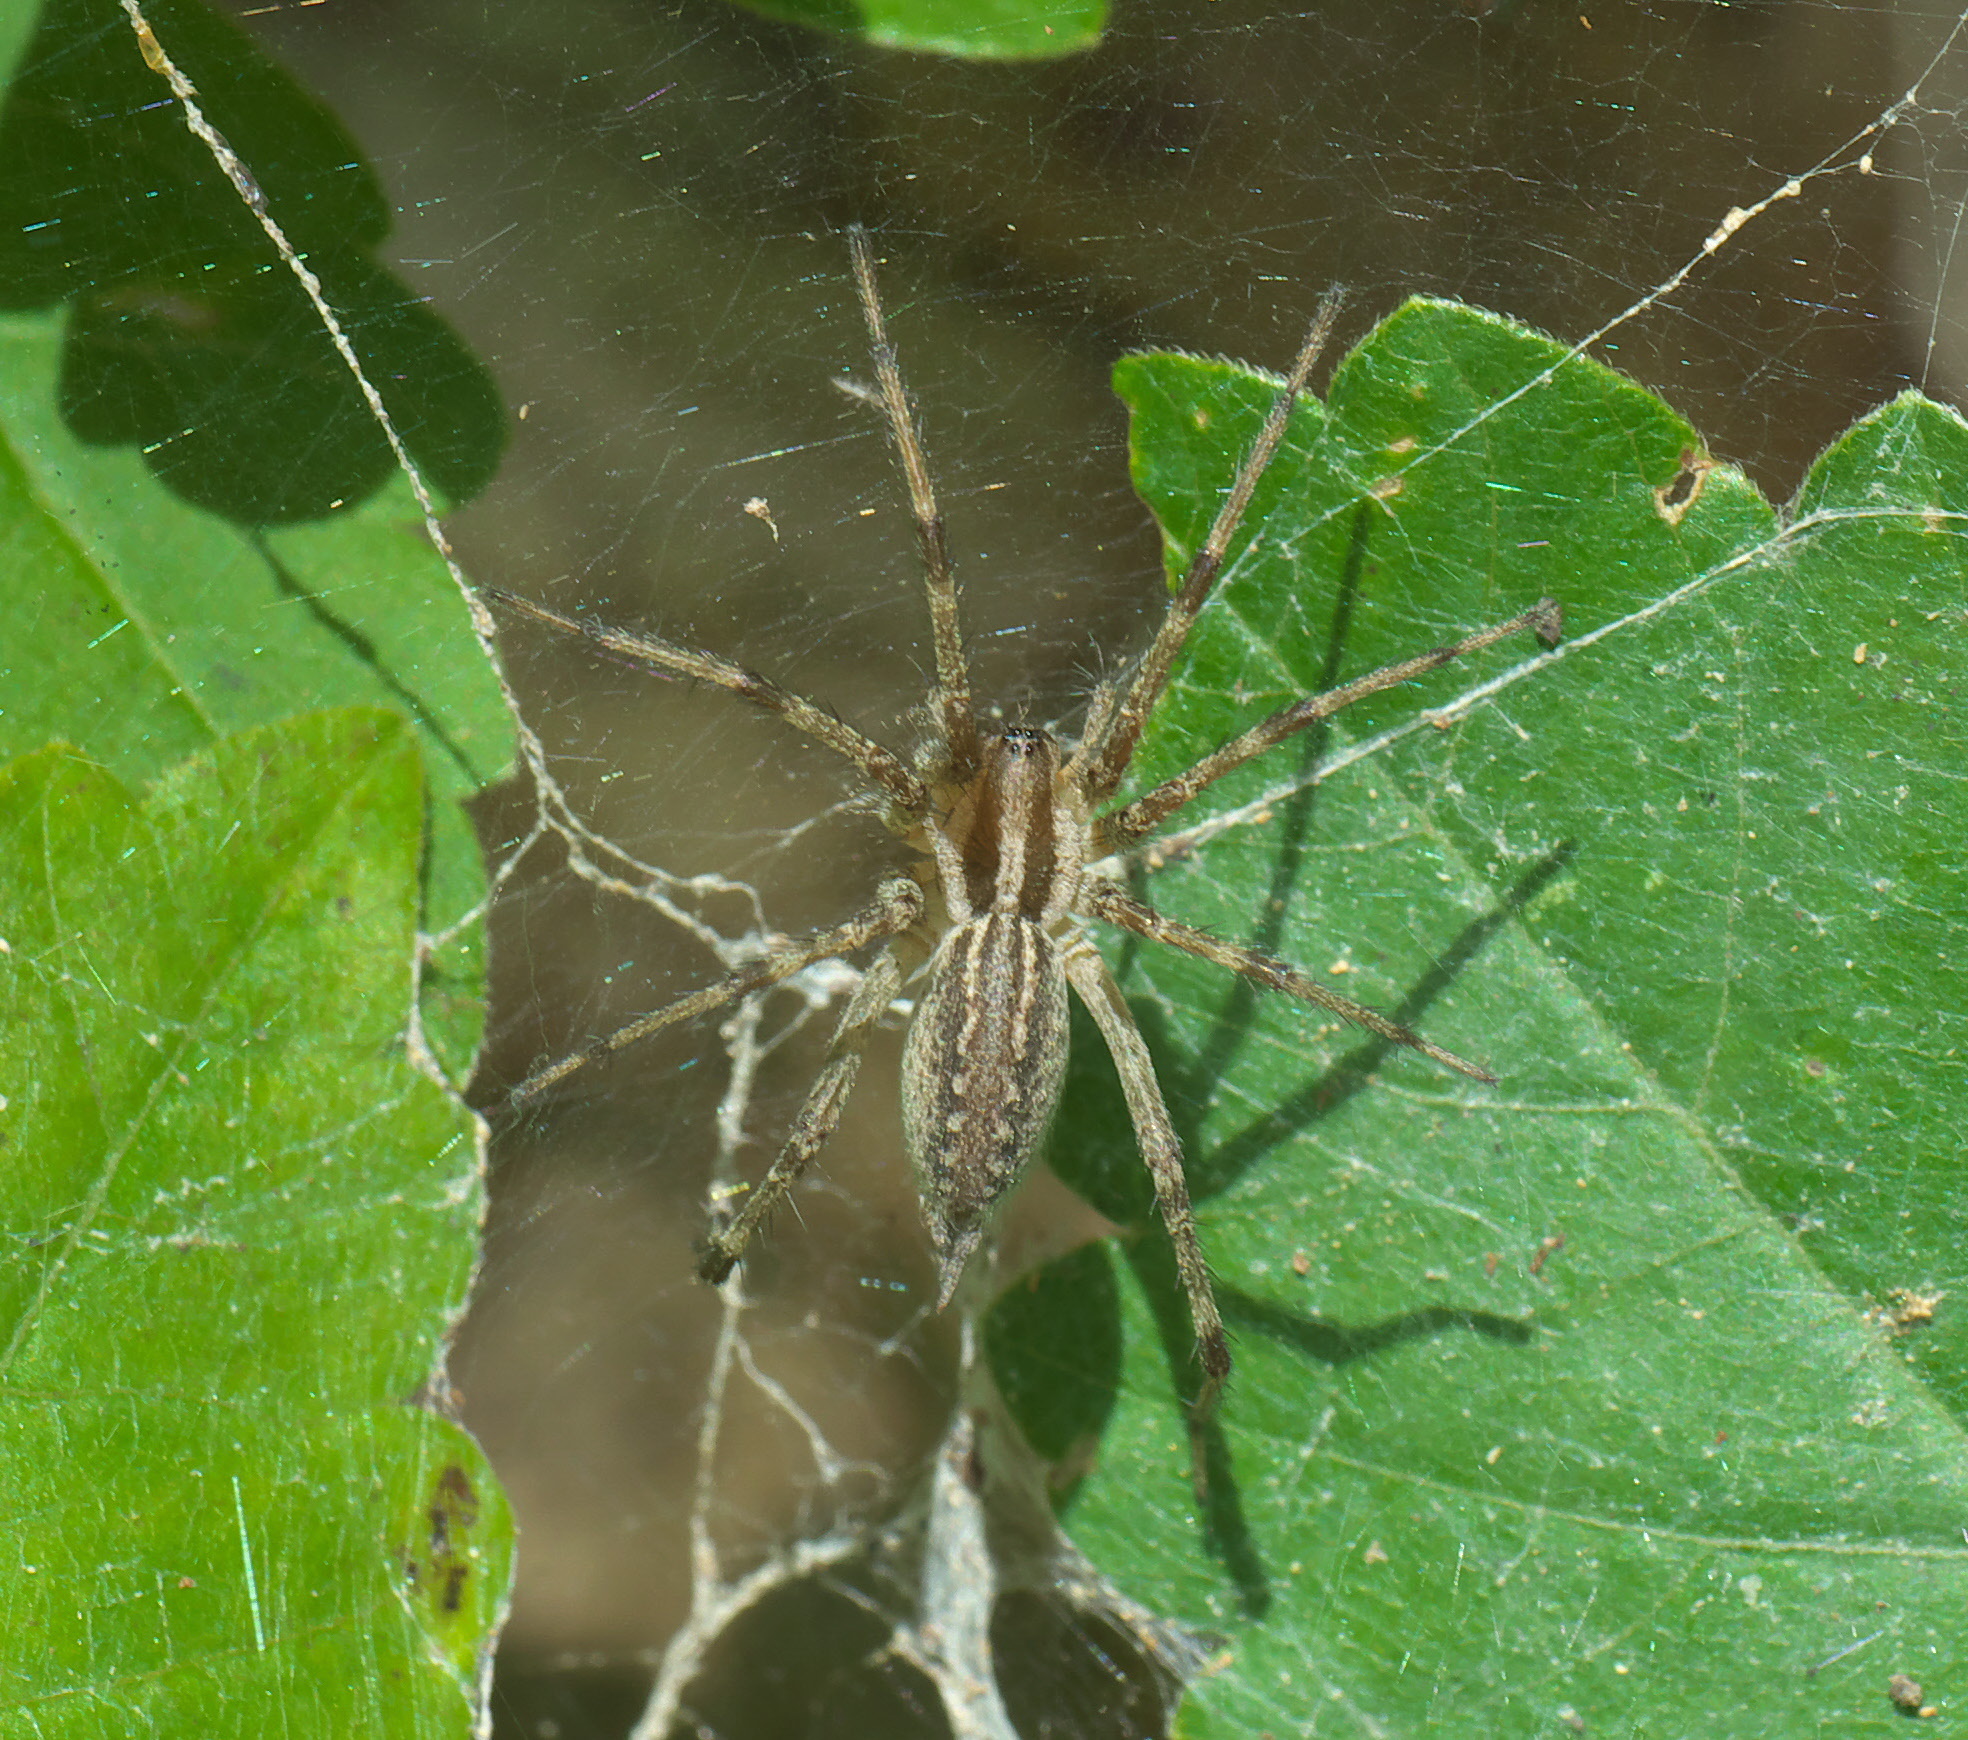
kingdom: Animalia
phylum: Arthropoda
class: Arachnida
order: Araneae
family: Agelenidae
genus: Agelenopsis
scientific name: Agelenopsis
